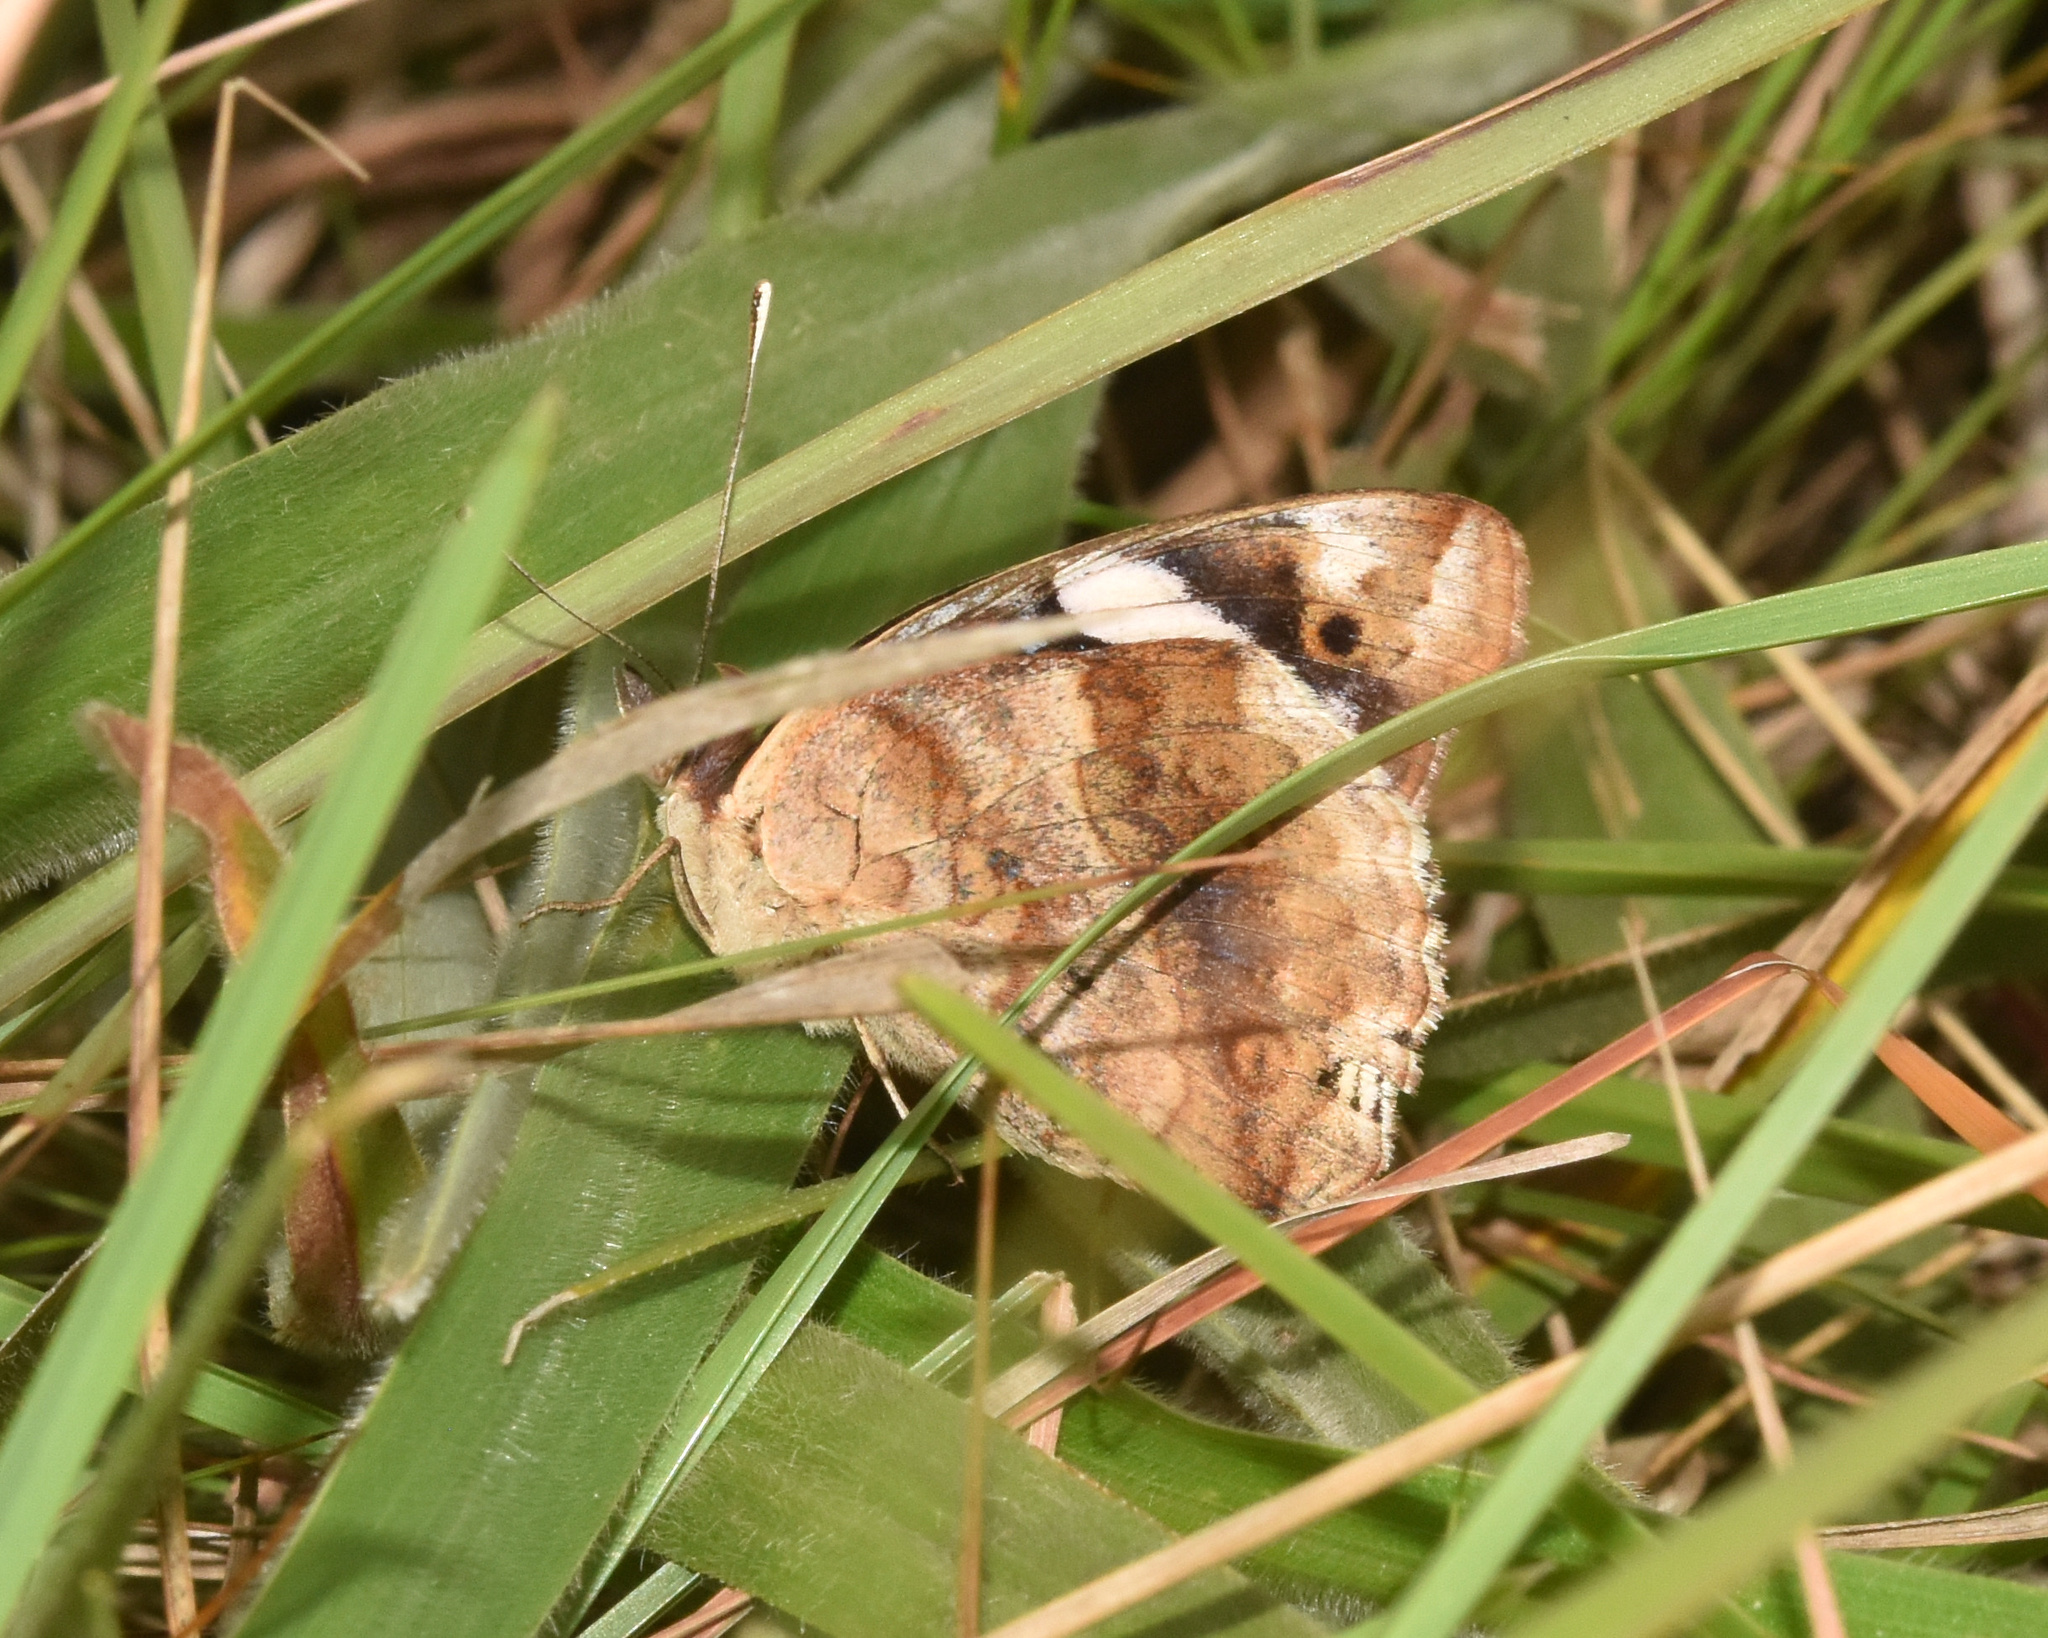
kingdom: Animalia
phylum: Arthropoda
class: Insecta
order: Lepidoptera
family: Nymphalidae
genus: Junonia
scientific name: Junonia oenone
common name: Dark blue pansy
